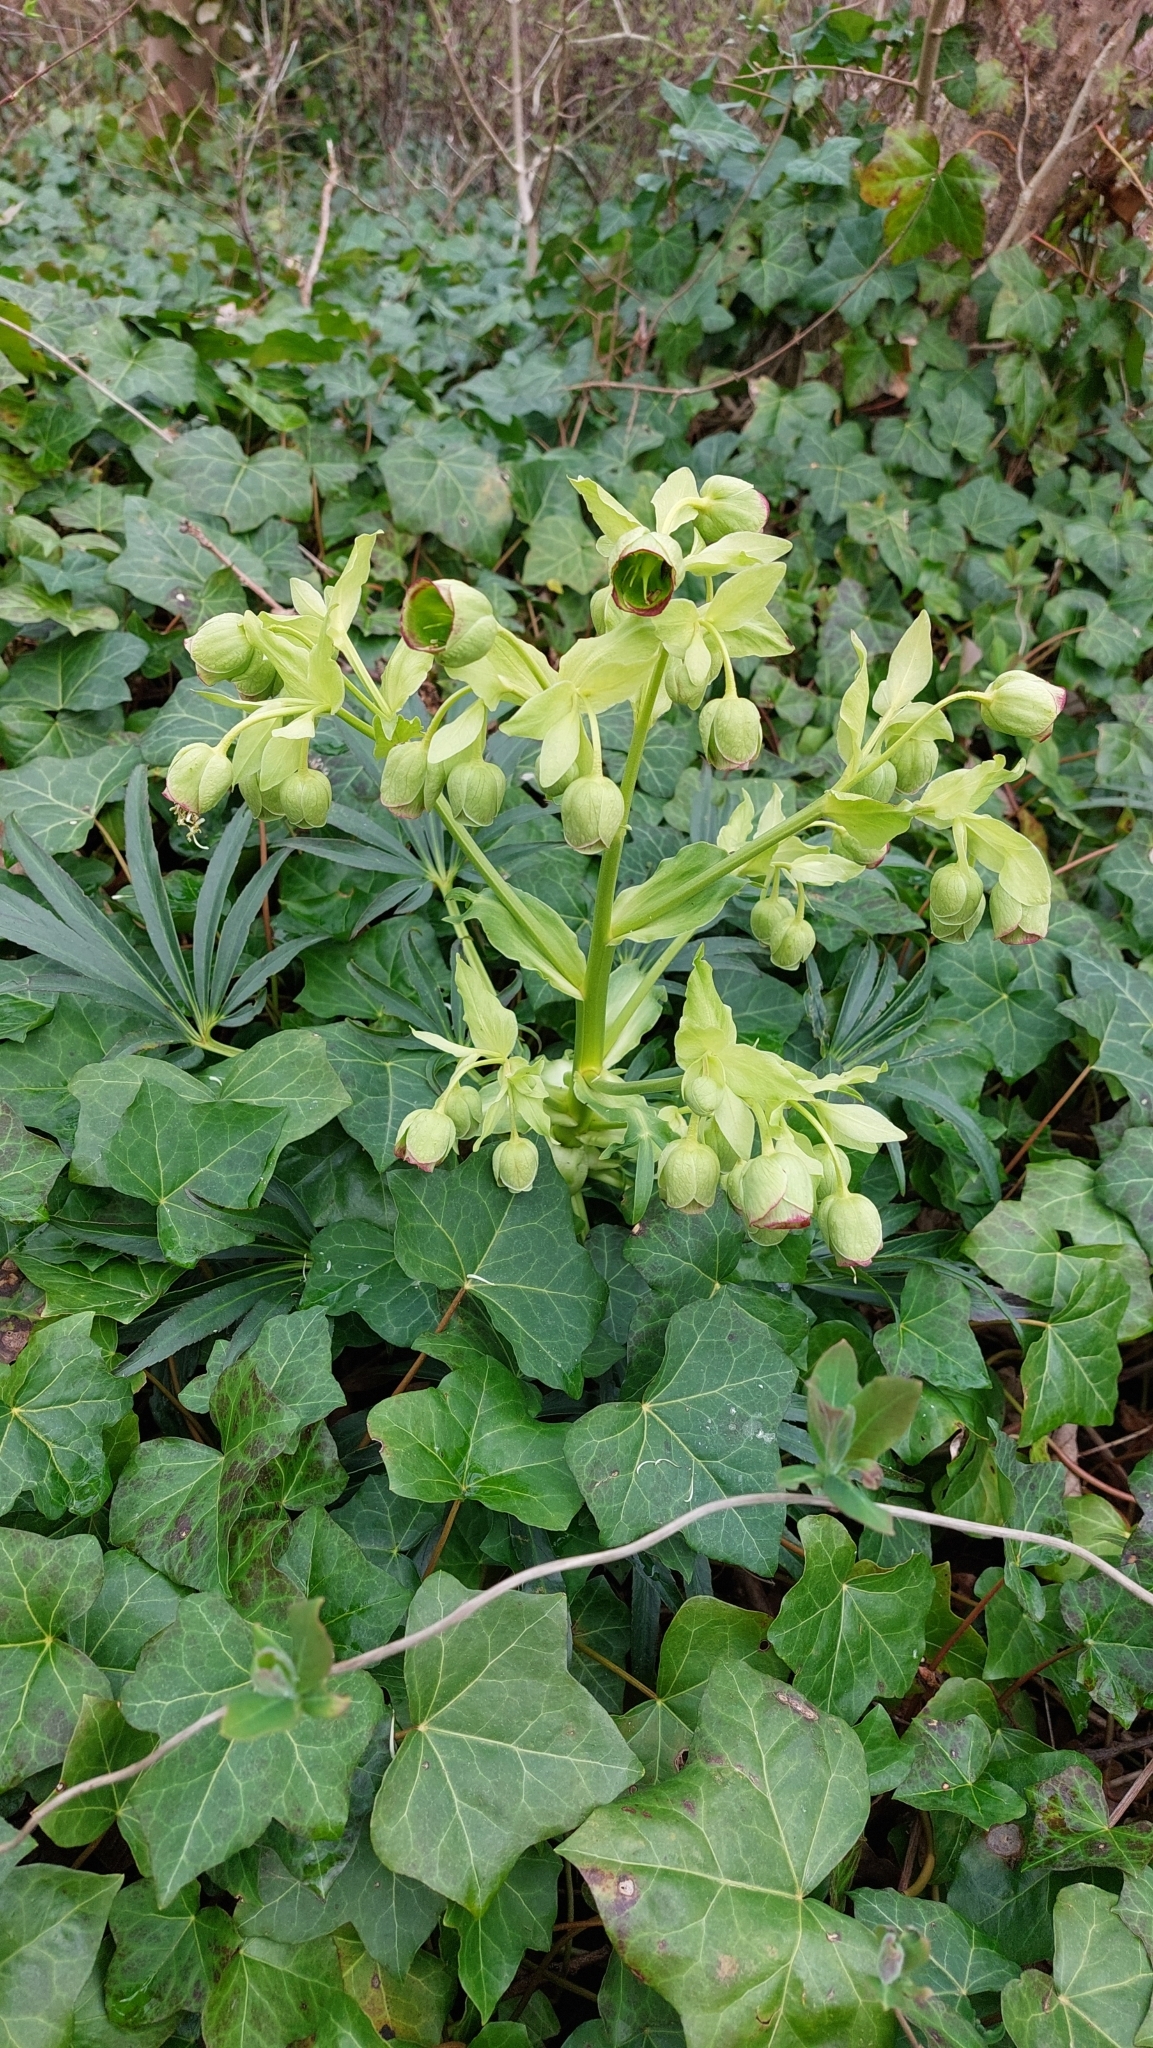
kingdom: Plantae
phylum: Tracheophyta
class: Magnoliopsida
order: Ranunculales
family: Ranunculaceae
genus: Helleborus
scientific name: Helleborus foetidus
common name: Stinking hellebore
